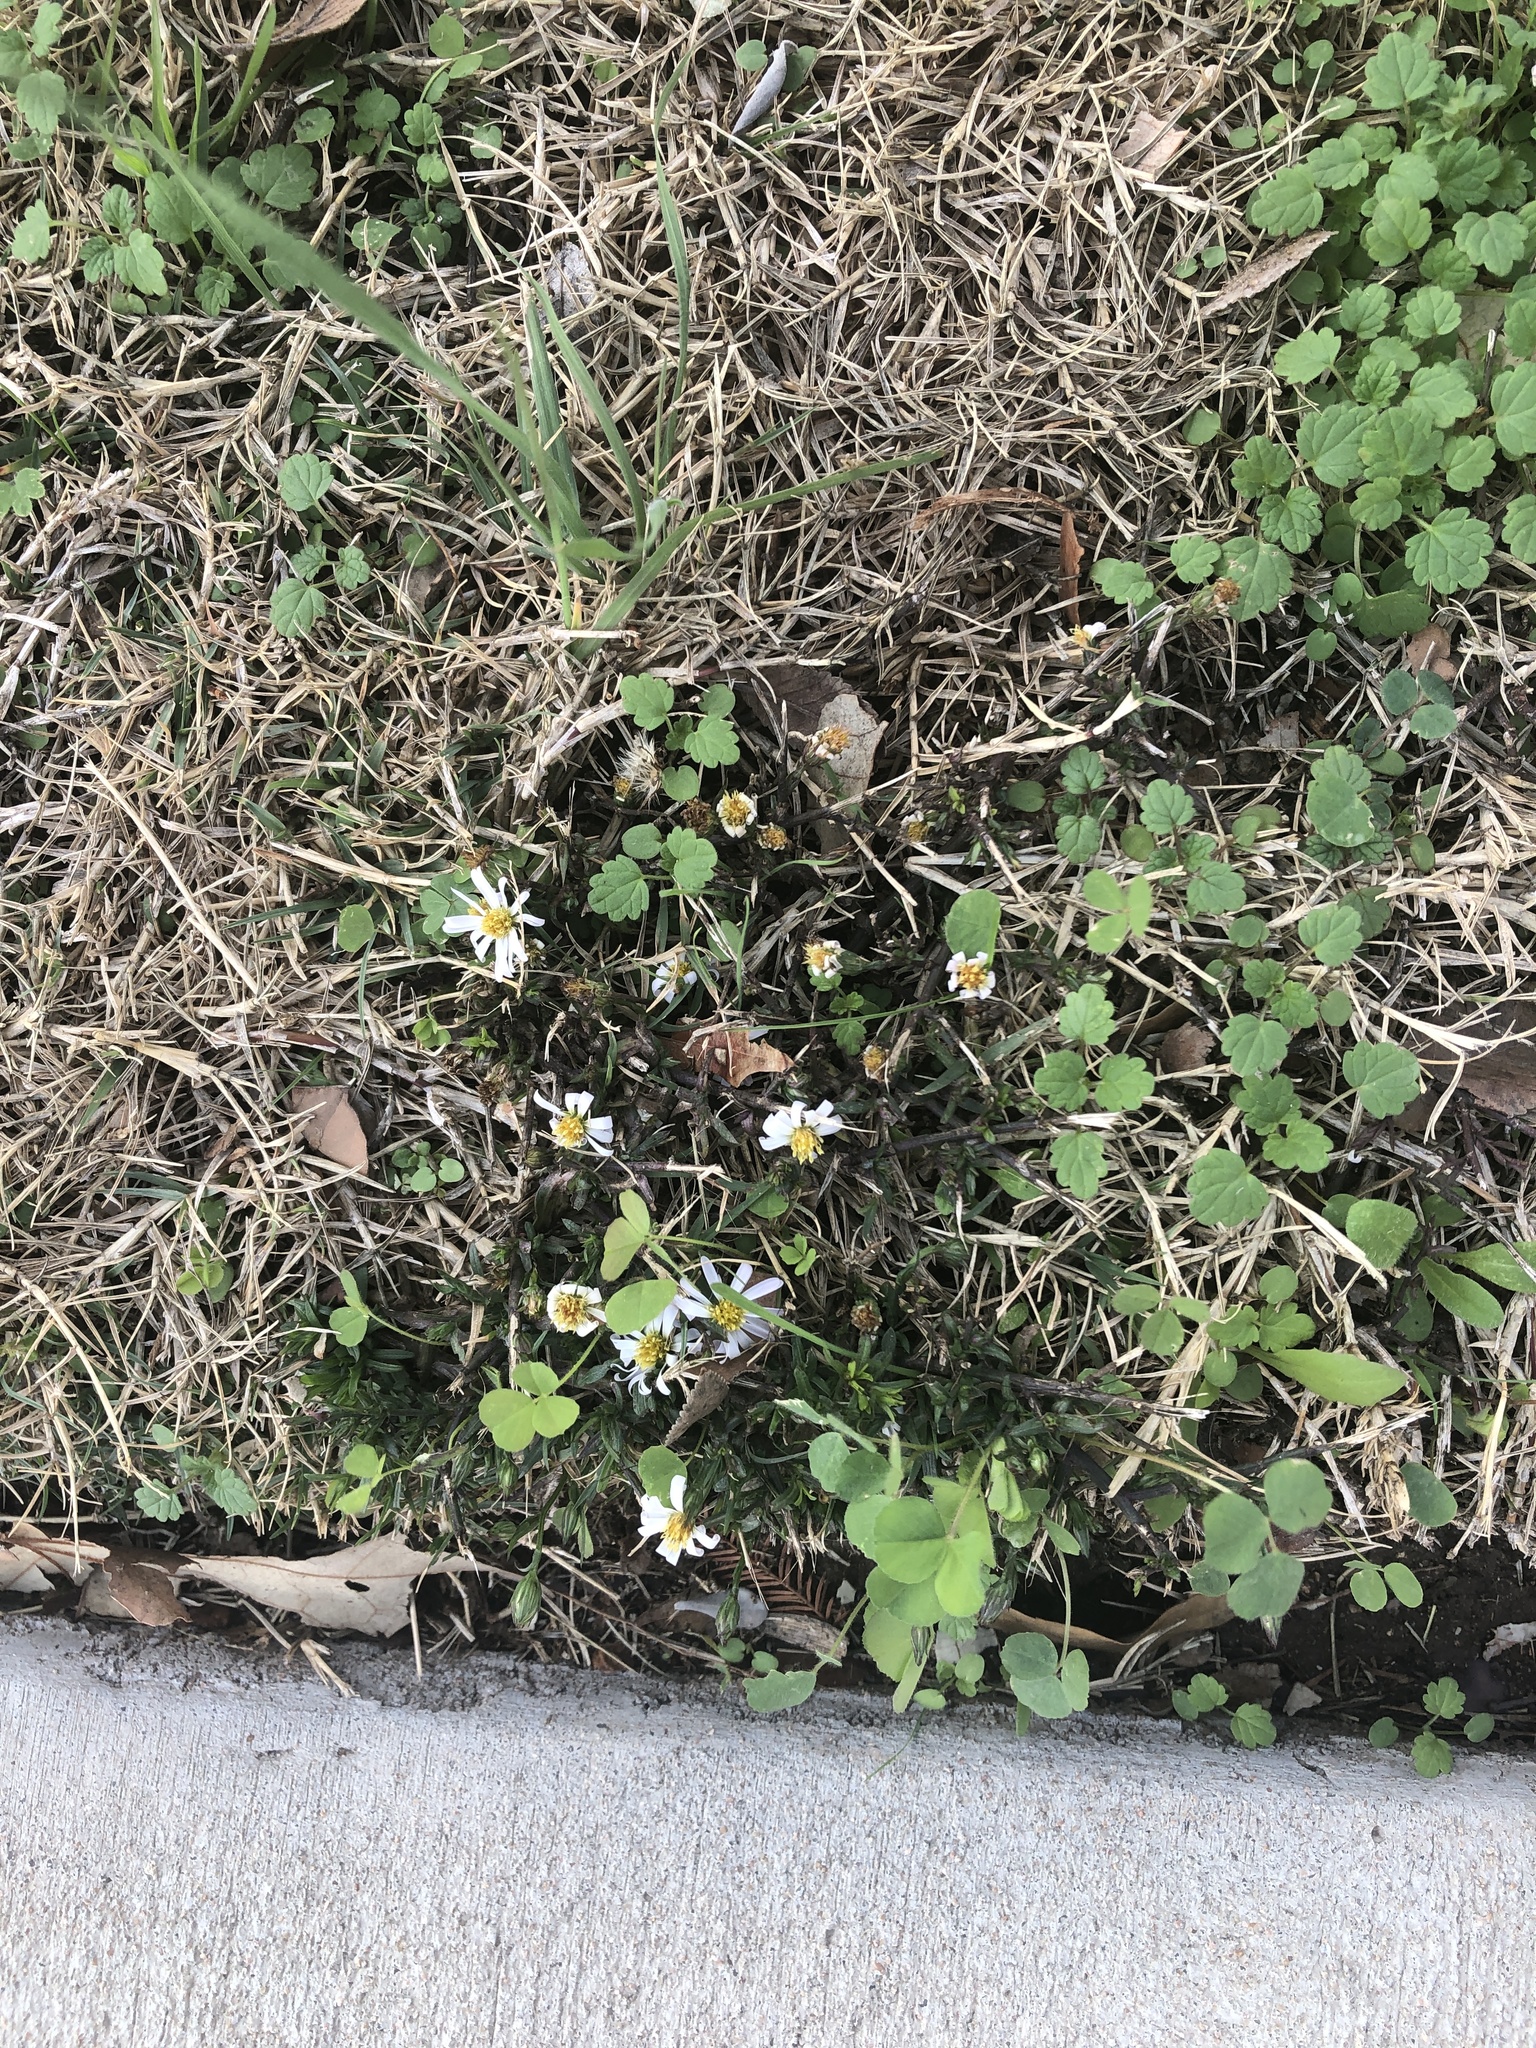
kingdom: Plantae
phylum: Tracheophyta
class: Magnoliopsida
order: Asterales
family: Asteraceae
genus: Symphyotrichum
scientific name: Symphyotrichum divaricatum
